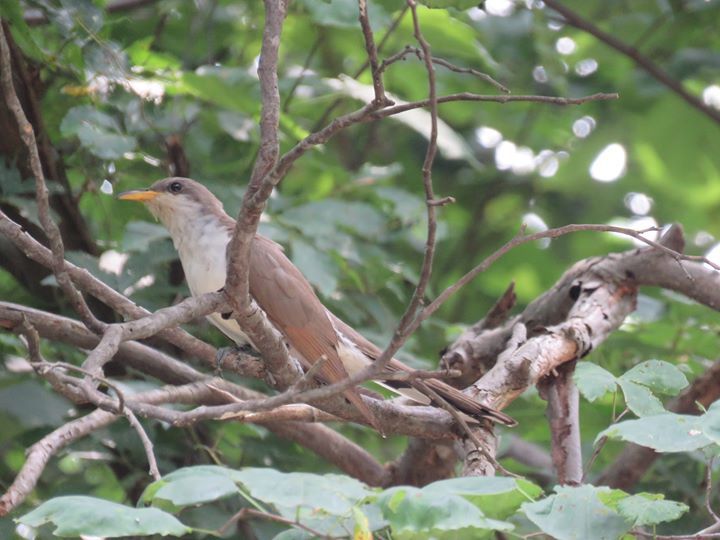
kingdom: Animalia
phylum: Chordata
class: Aves
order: Cuculiformes
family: Cuculidae
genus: Coccyzus
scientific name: Coccyzus americanus
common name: Yellow-billed cuckoo
